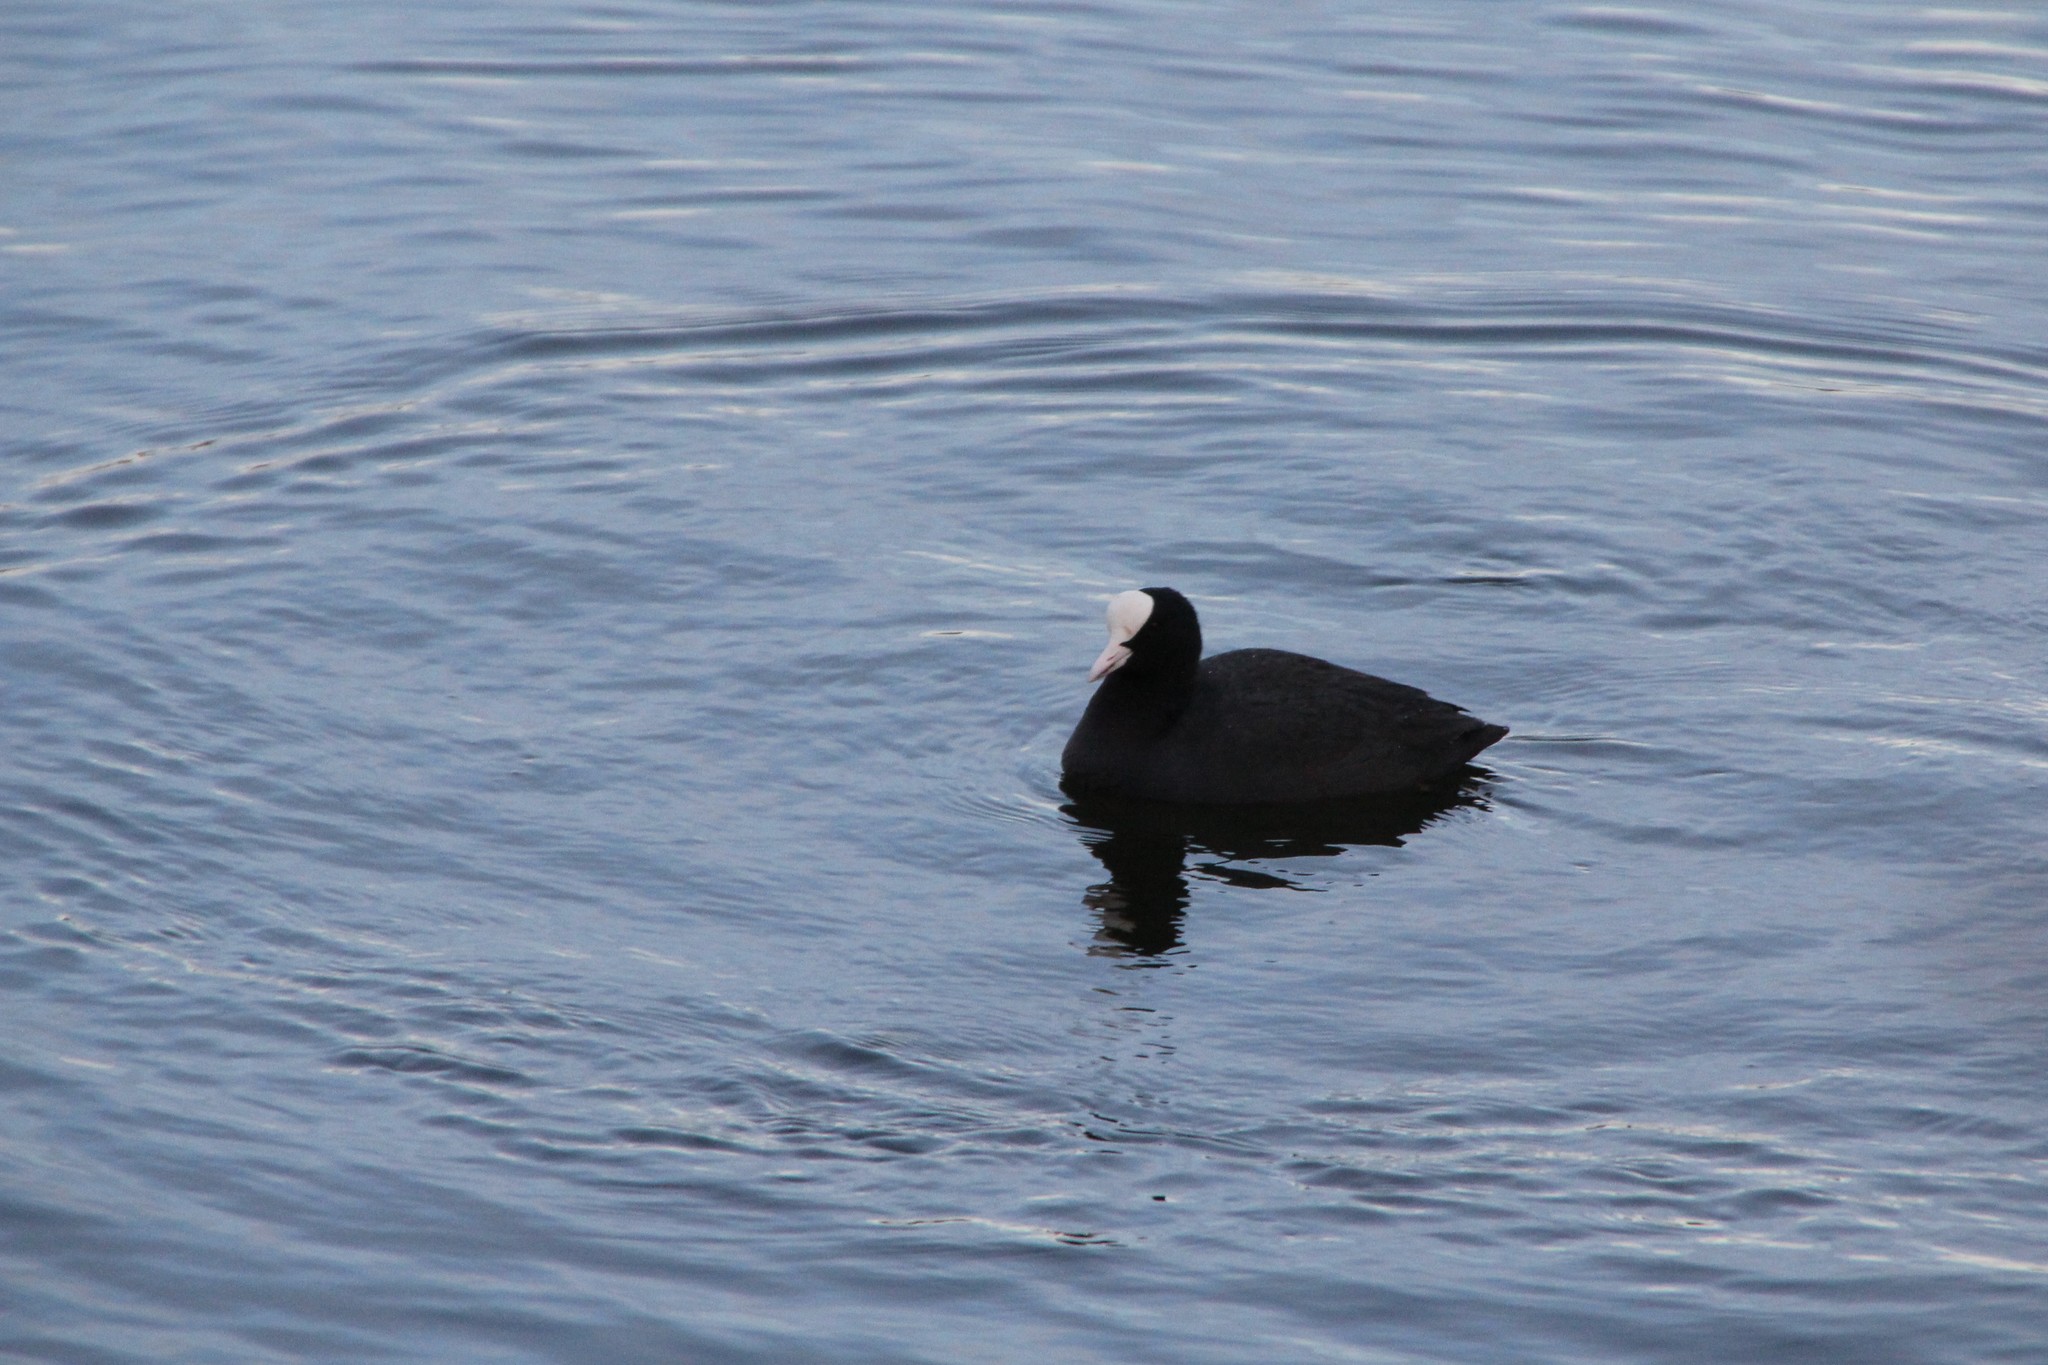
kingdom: Animalia
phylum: Chordata
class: Aves
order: Gruiformes
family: Rallidae
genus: Fulica
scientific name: Fulica atra
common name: Eurasian coot
